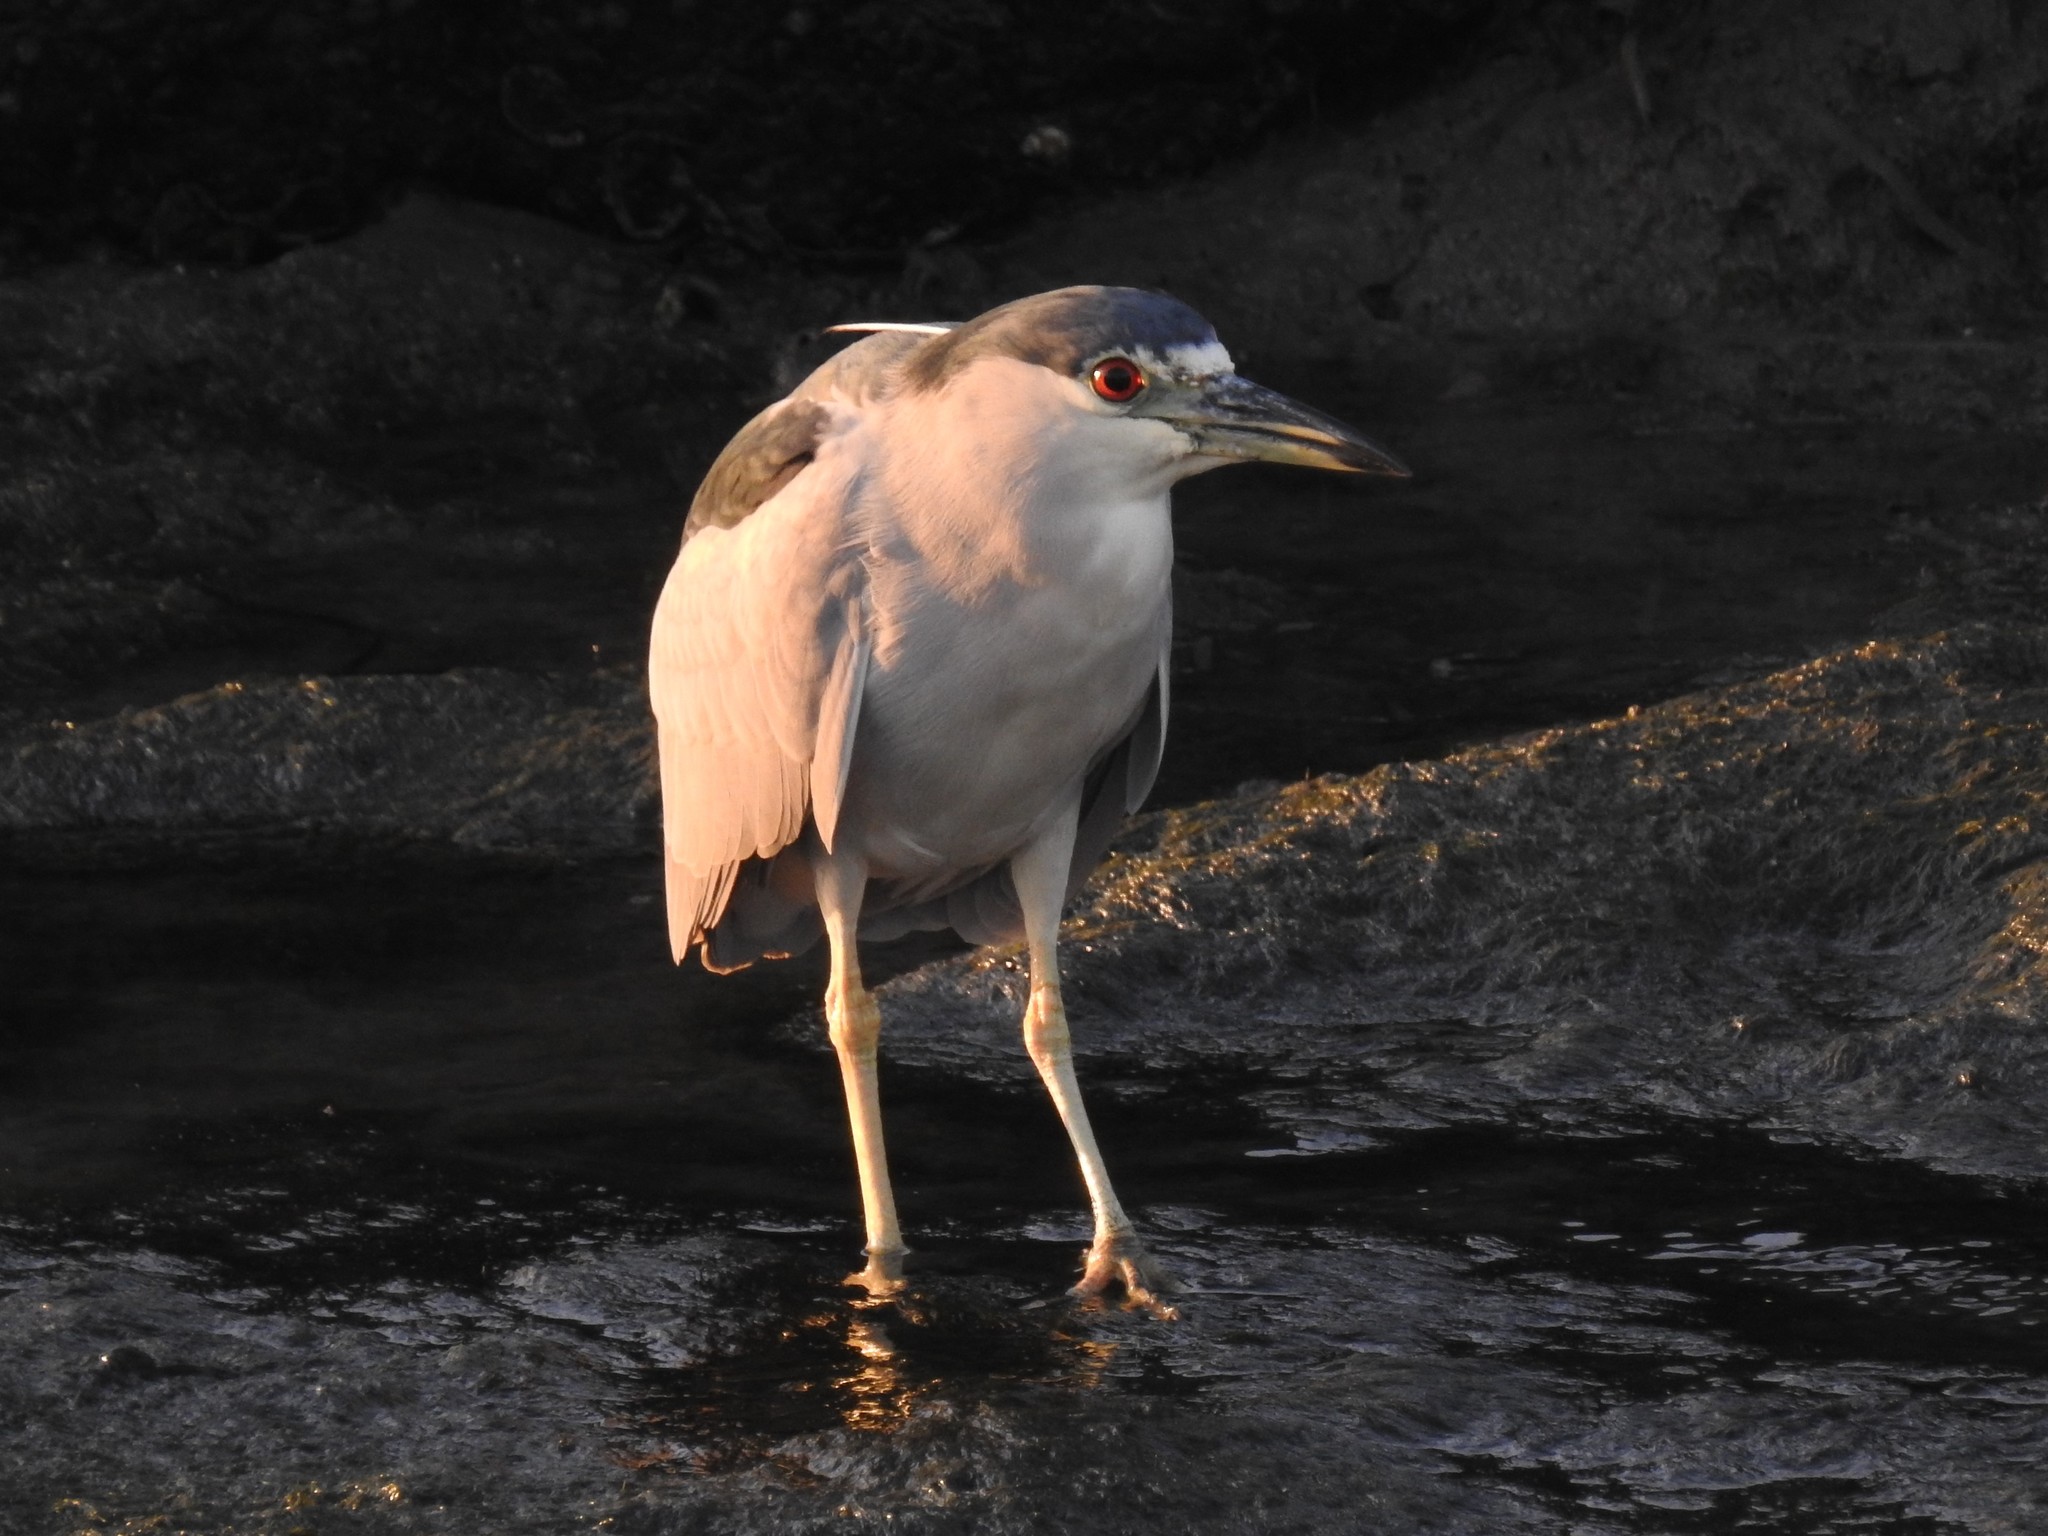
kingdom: Animalia
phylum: Chordata
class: Aves
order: Pelecaniformes
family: Ardeidae
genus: Nycticorax
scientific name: Nycticorax nycticorax
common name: Black-crowned night heron
